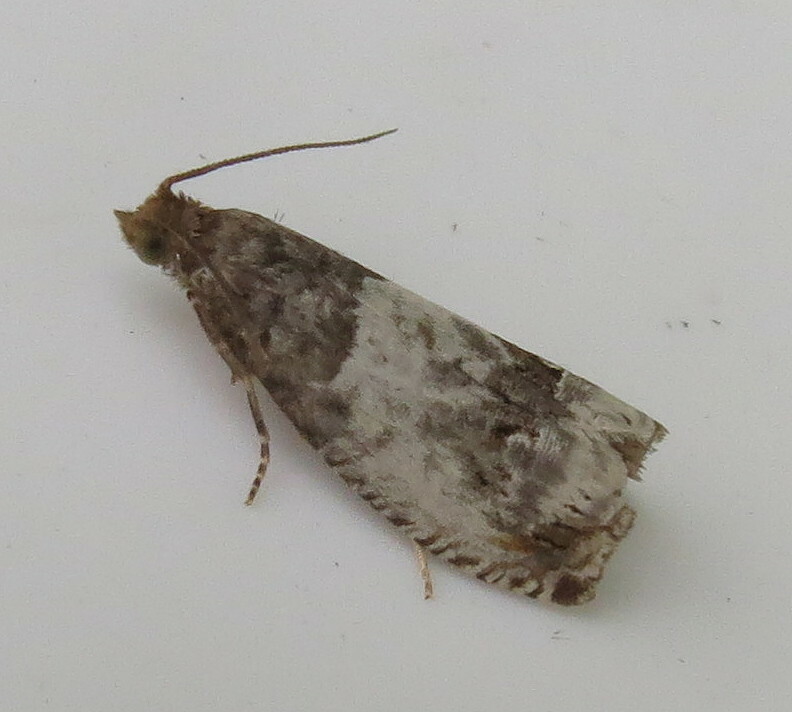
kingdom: Animalia
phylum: Arthropoda
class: Insecta
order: Lepidoptera
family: Tortricidae
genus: Notocelia
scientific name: Notocelia rosaecolana
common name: Common rose bell
